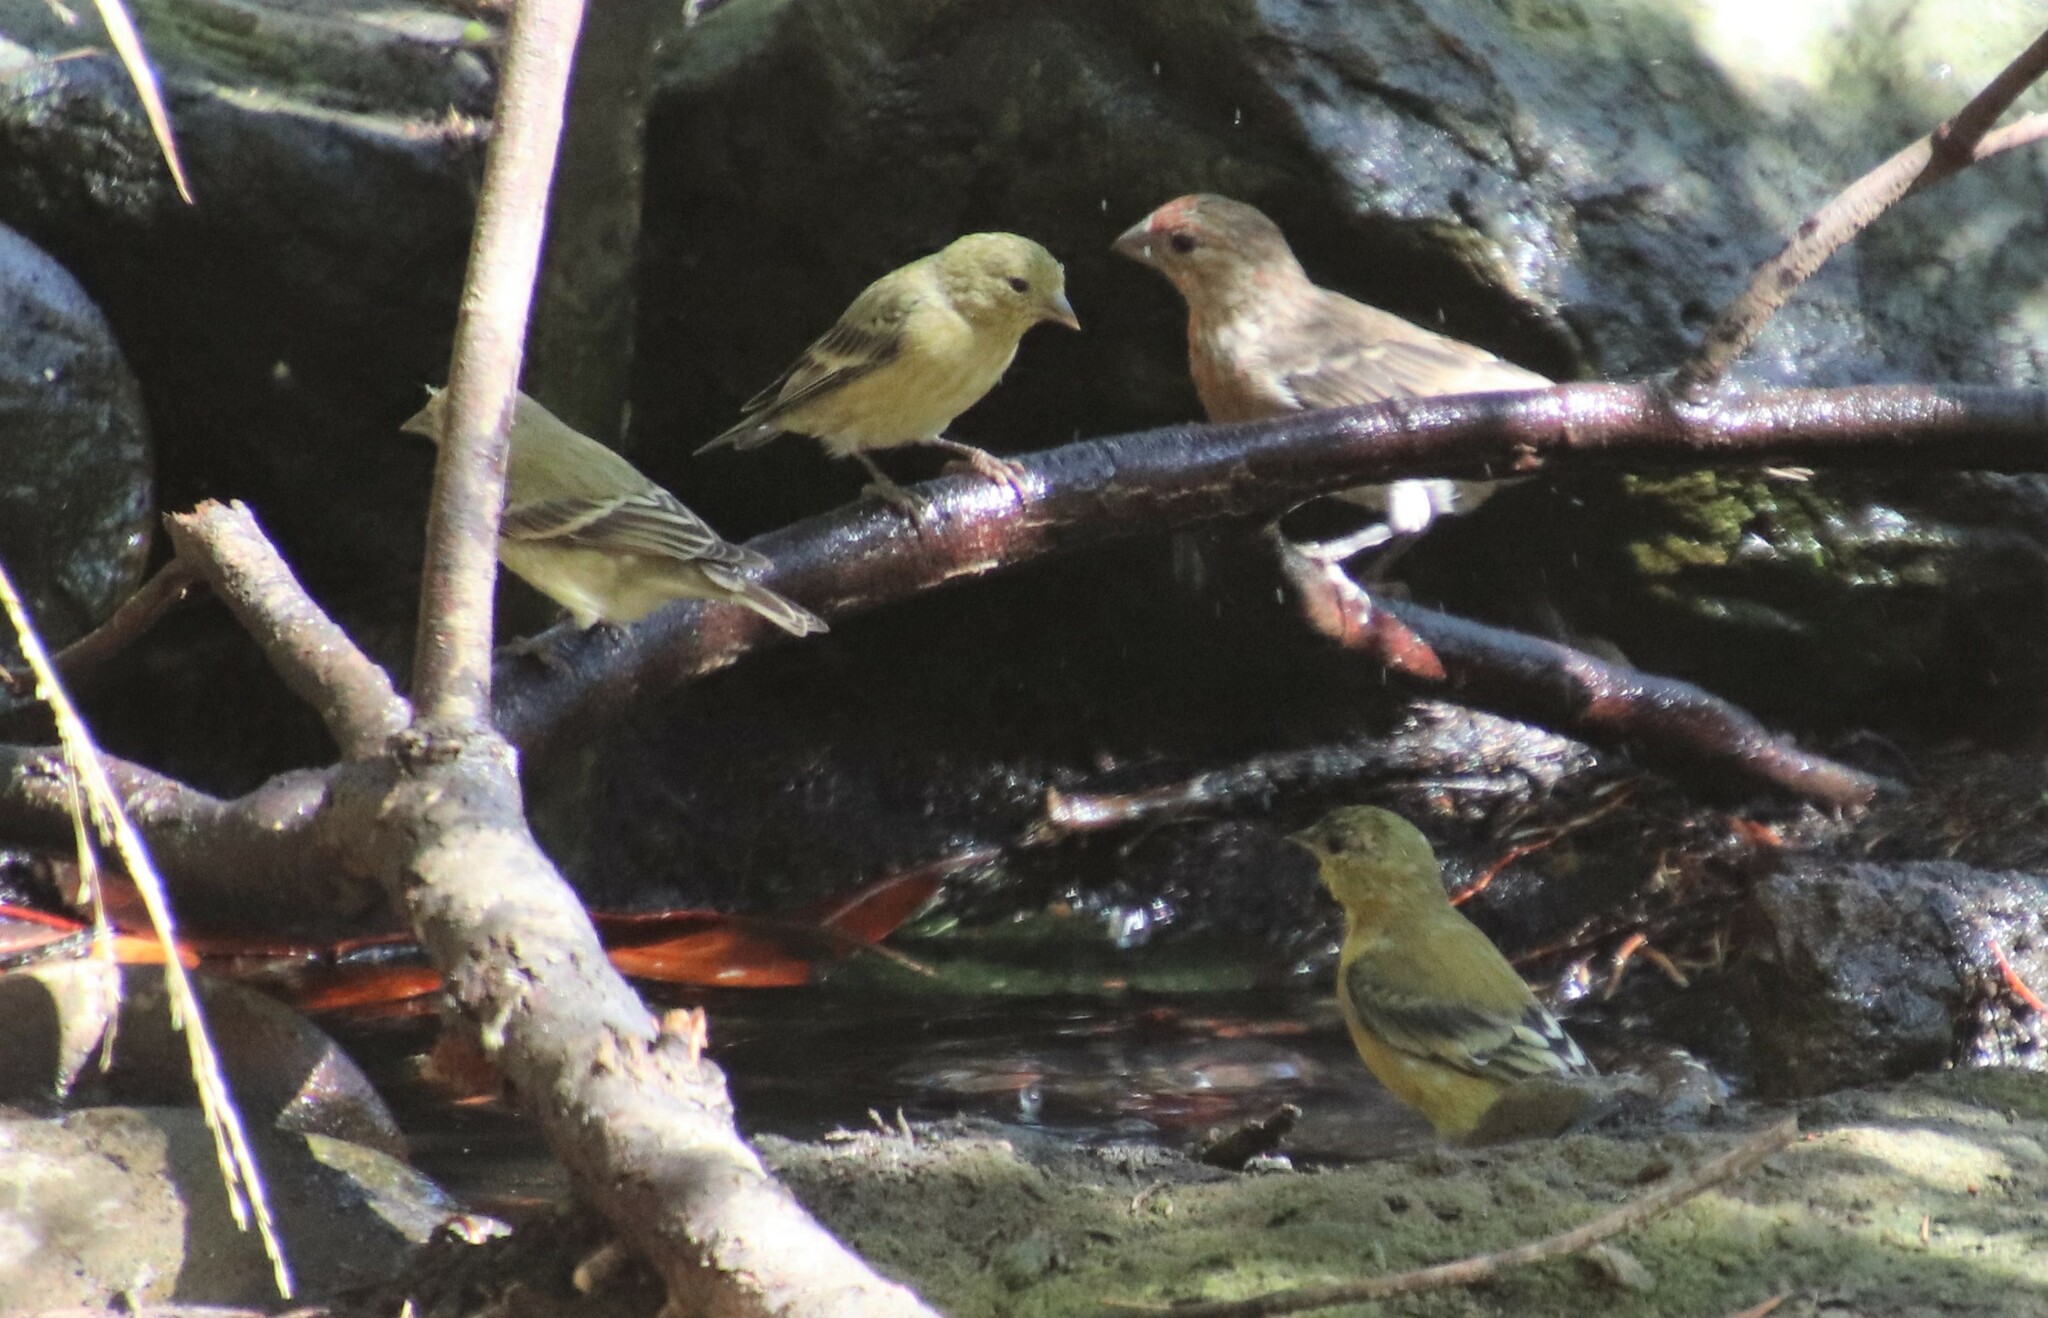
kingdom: Animalia
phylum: Chordata
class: Aves
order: Passeriformes
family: Fringillidae
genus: Spinus
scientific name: Spinus psaltria
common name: Lesser goldfinch
